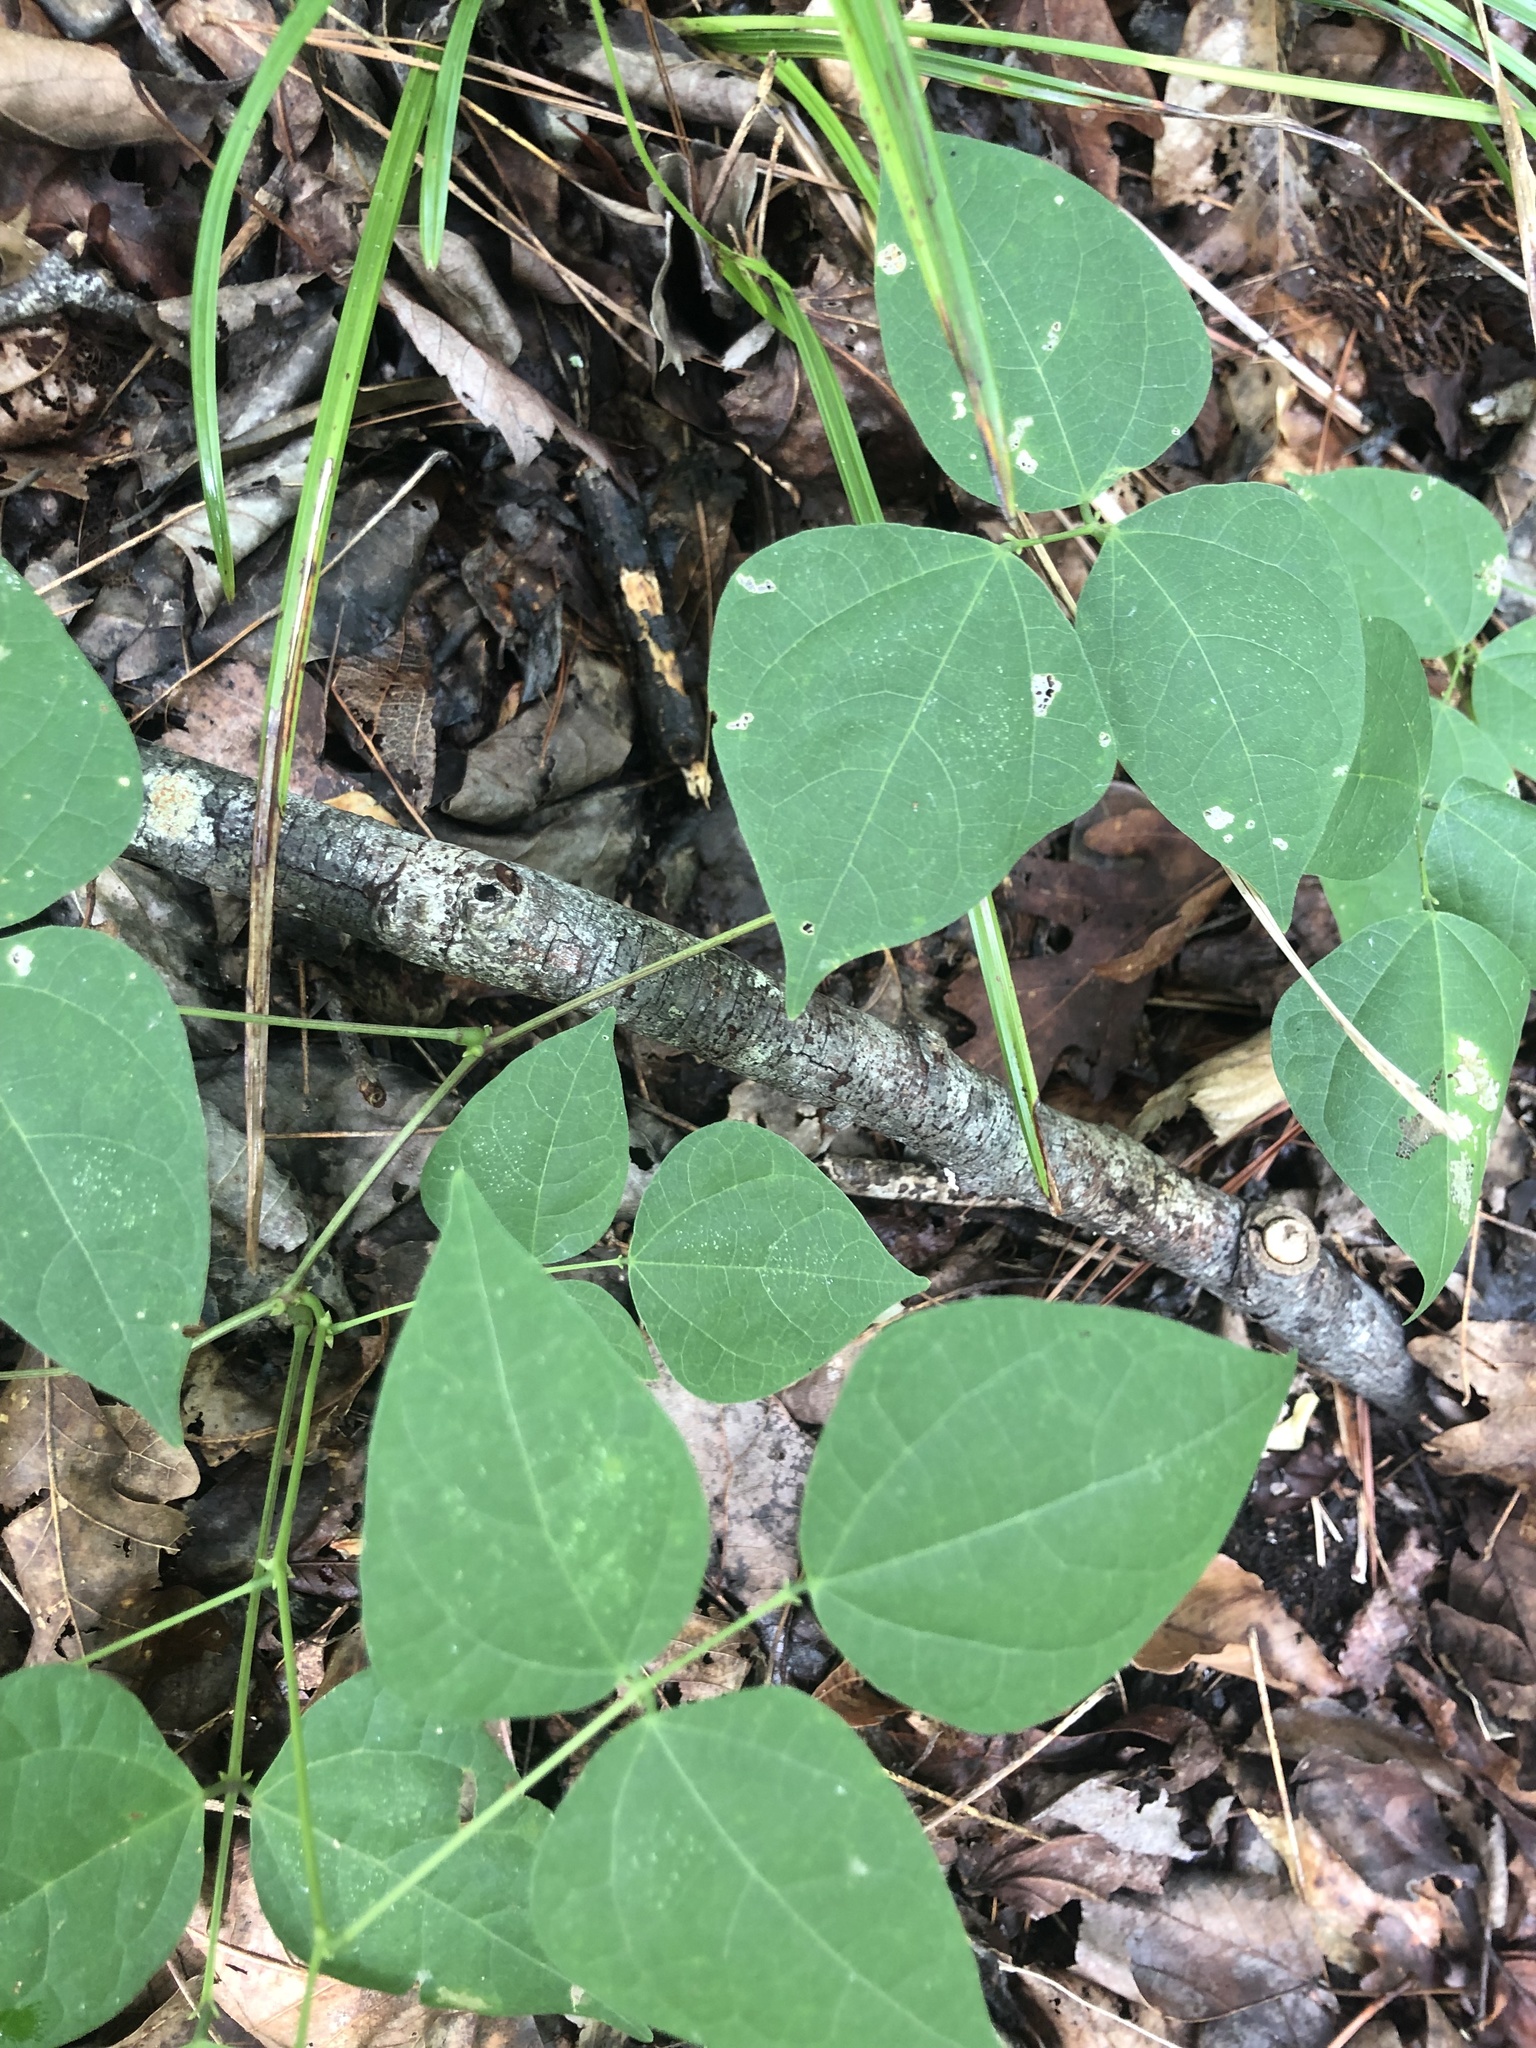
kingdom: Plantae
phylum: Tracheophyta
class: Magnoliopsida
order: Fabales
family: Fabaceae
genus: Phaseolus
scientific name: Phaseolus polystachios
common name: Thicket bean
